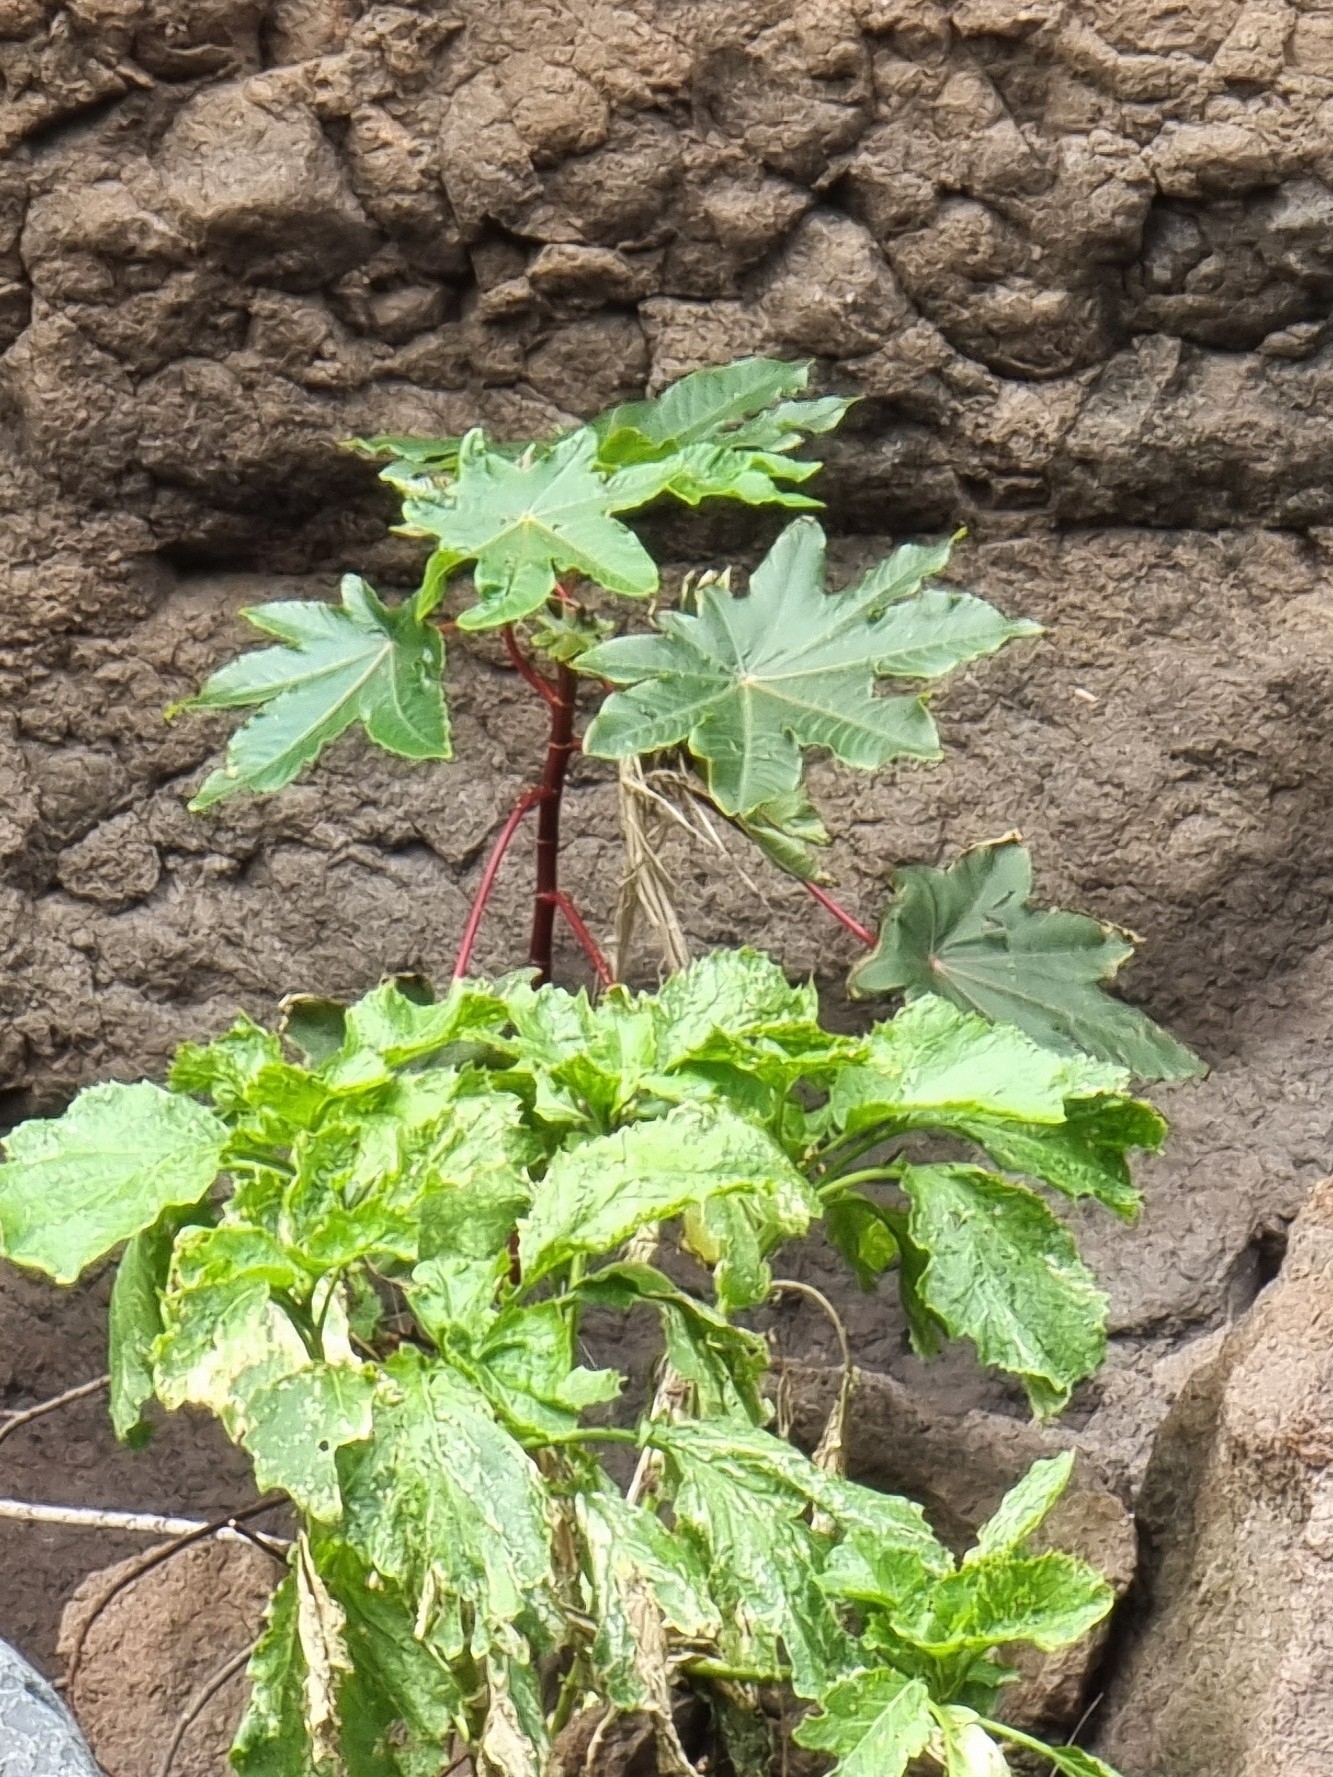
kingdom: Plantae
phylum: Tracheophyta
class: Magnoliopsida
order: Malpighiales
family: Euphorbiaceae
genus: Ricinus
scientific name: Ricinus communis
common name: Castor-oil-plant
